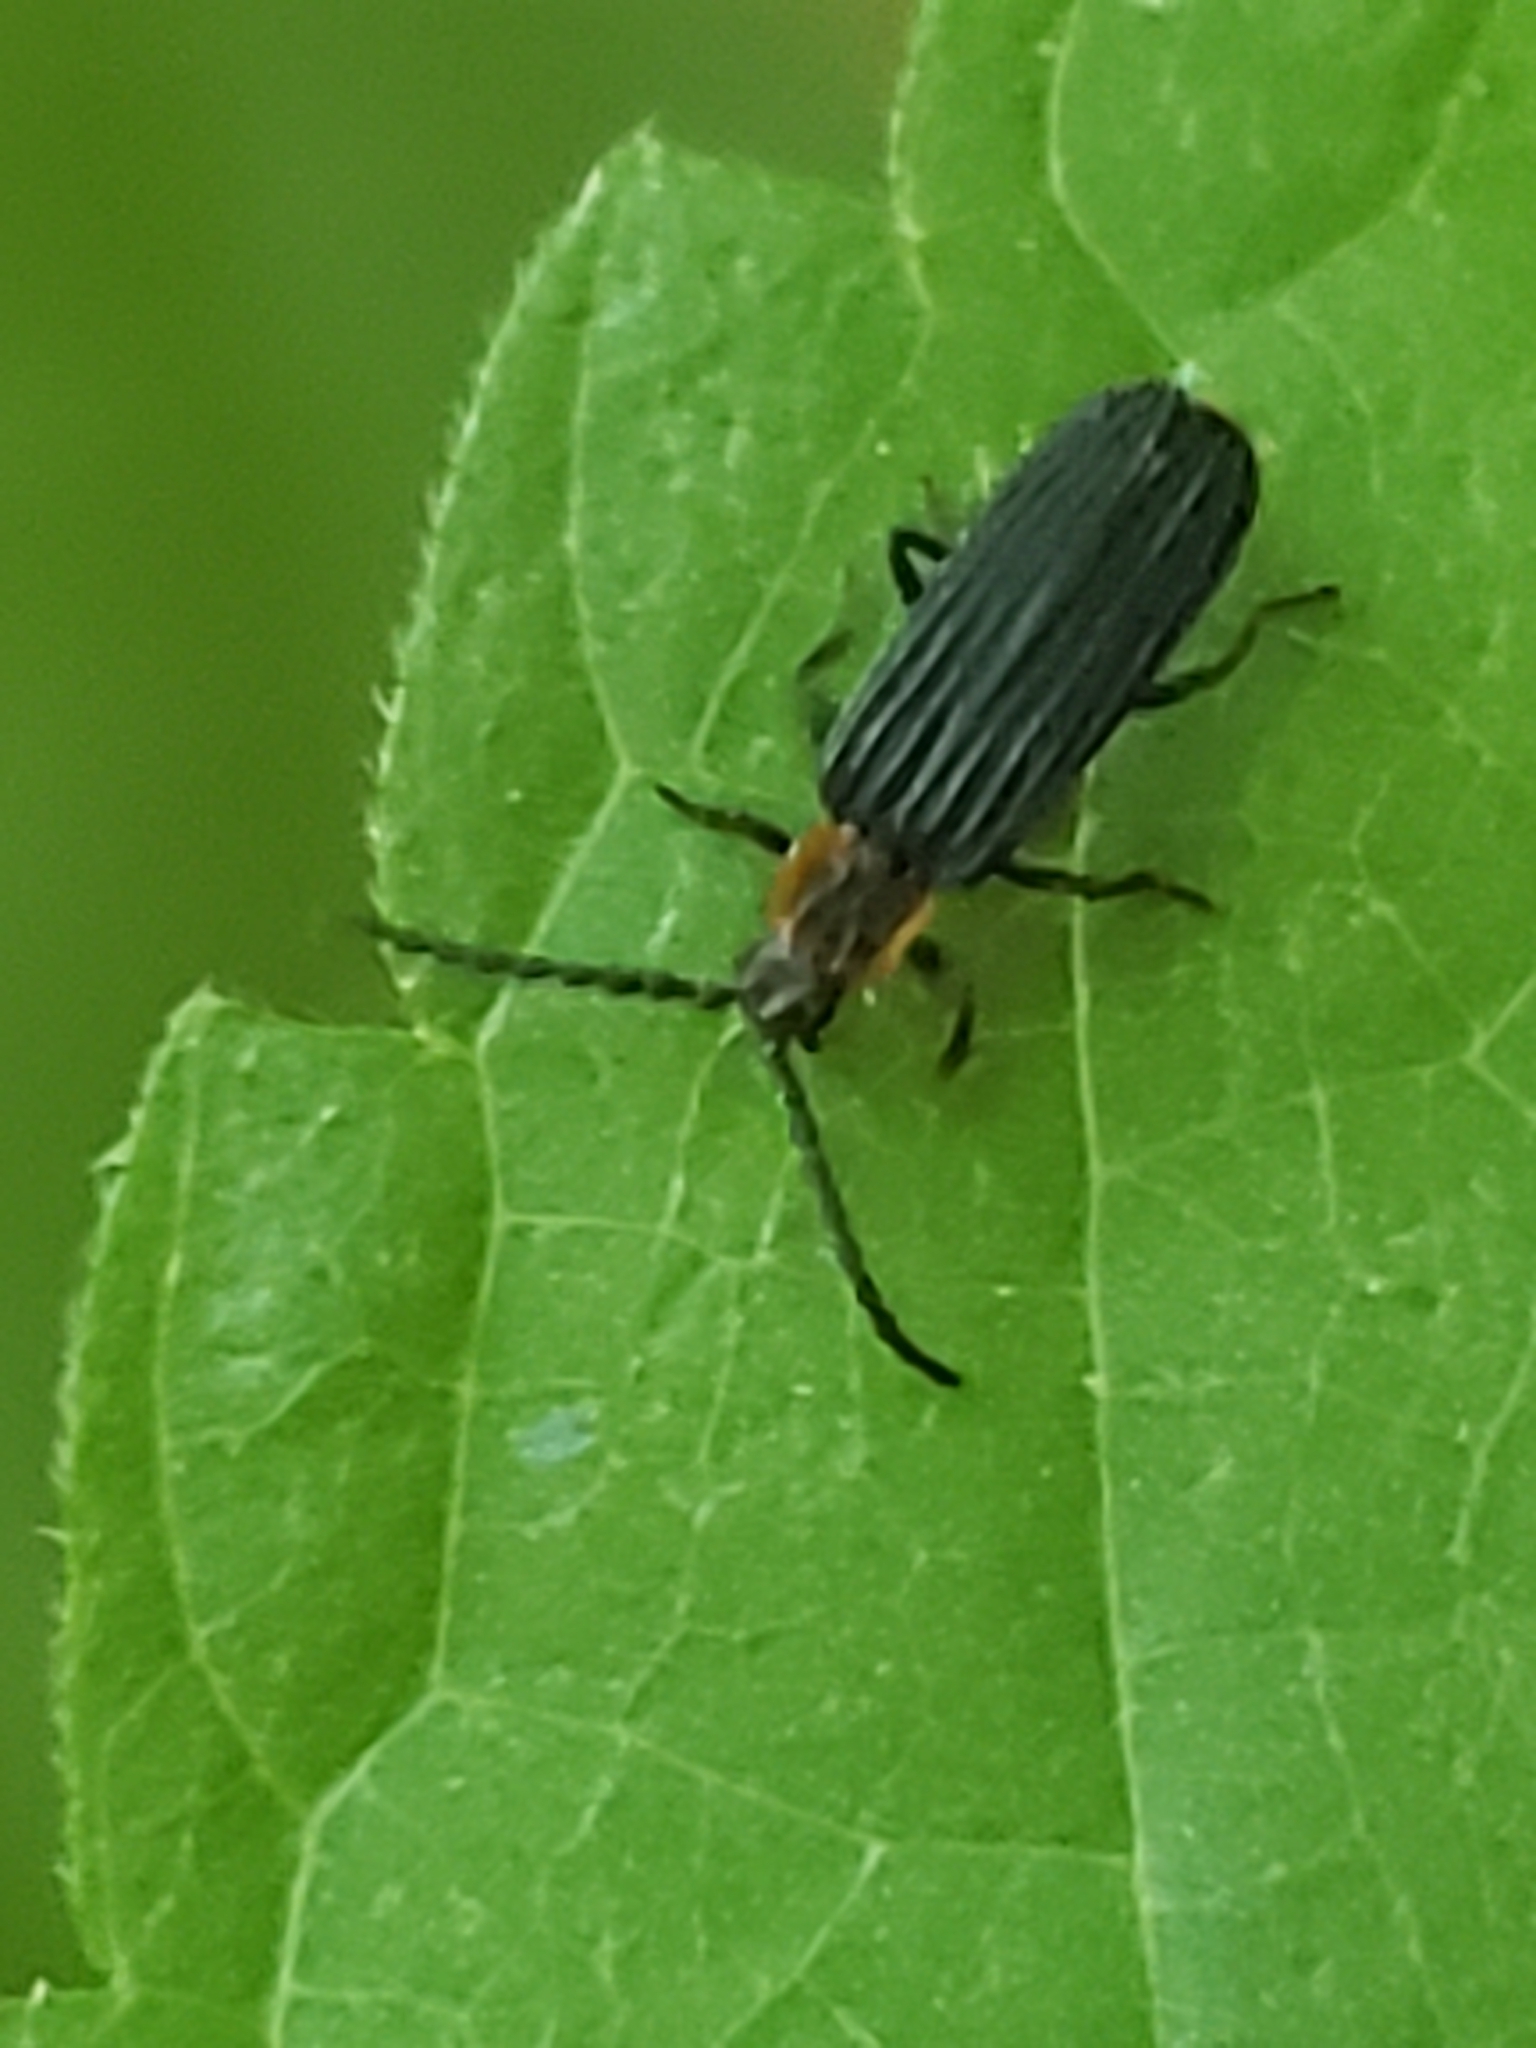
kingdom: Animalia
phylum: Arthropoda
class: Insecta
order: Coleoptera
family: Lycidae
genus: Erotides
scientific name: Erotides sculptilis
